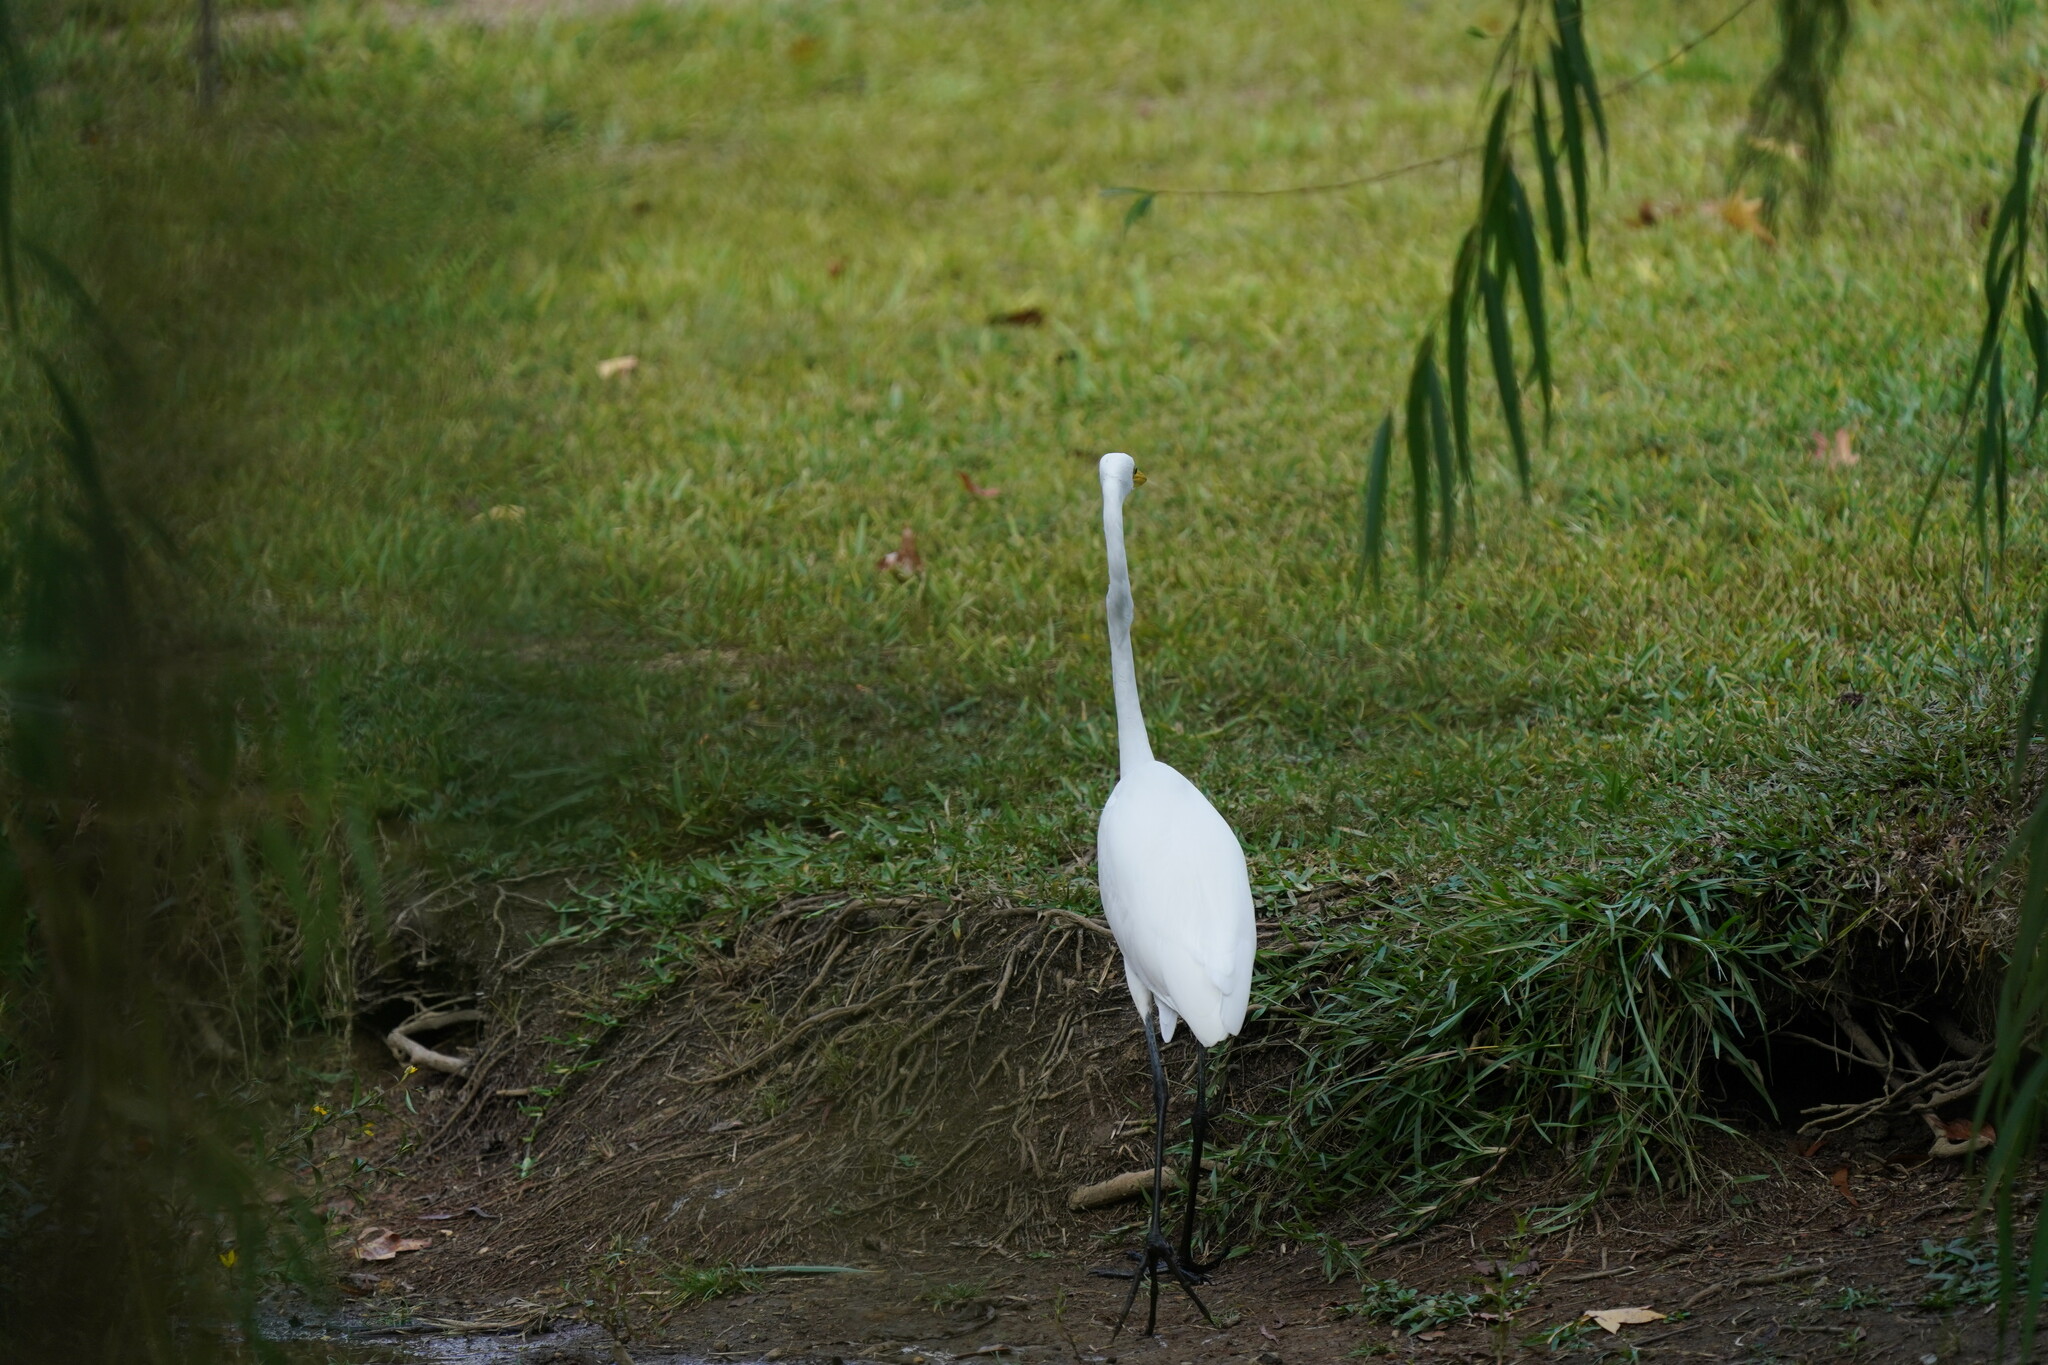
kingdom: Animalia
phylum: Chordata
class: Aves
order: Pelecaniformes
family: Ardeidae
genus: Ardea
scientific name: Ardea alba
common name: Great egret
